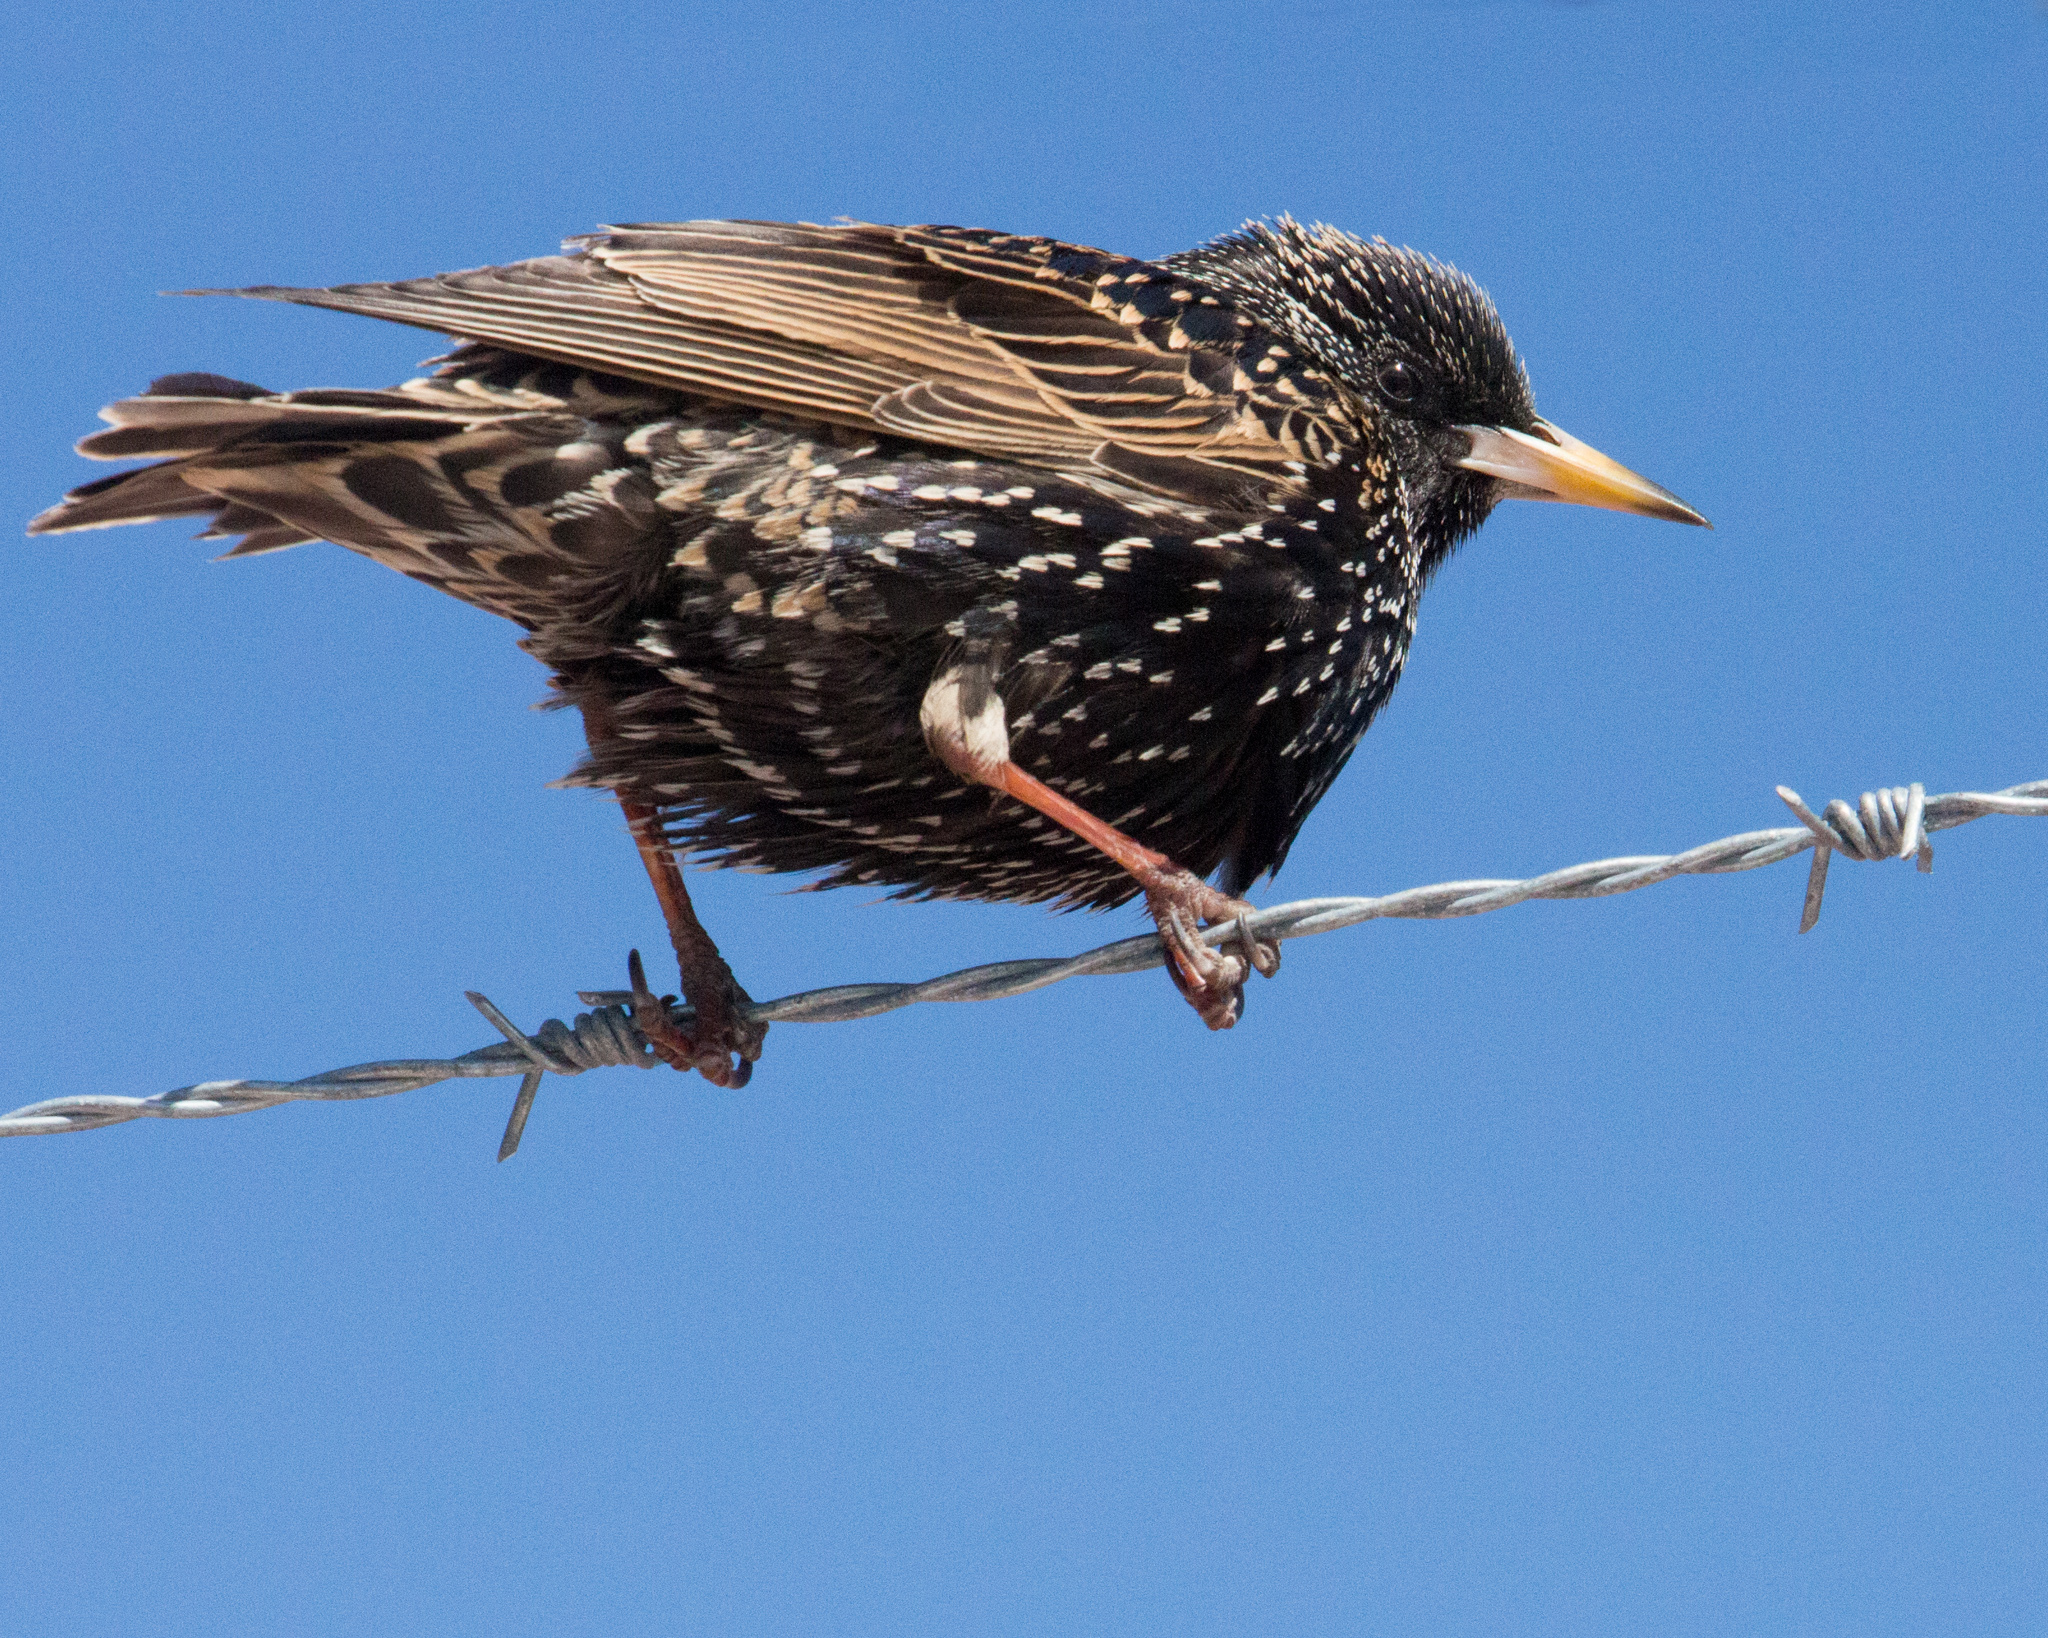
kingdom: Animalia
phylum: Chordata
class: Aves
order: Passeriformes
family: Sturnidae
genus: Sturnus
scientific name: Sturnus vulgaris
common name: Common starling
